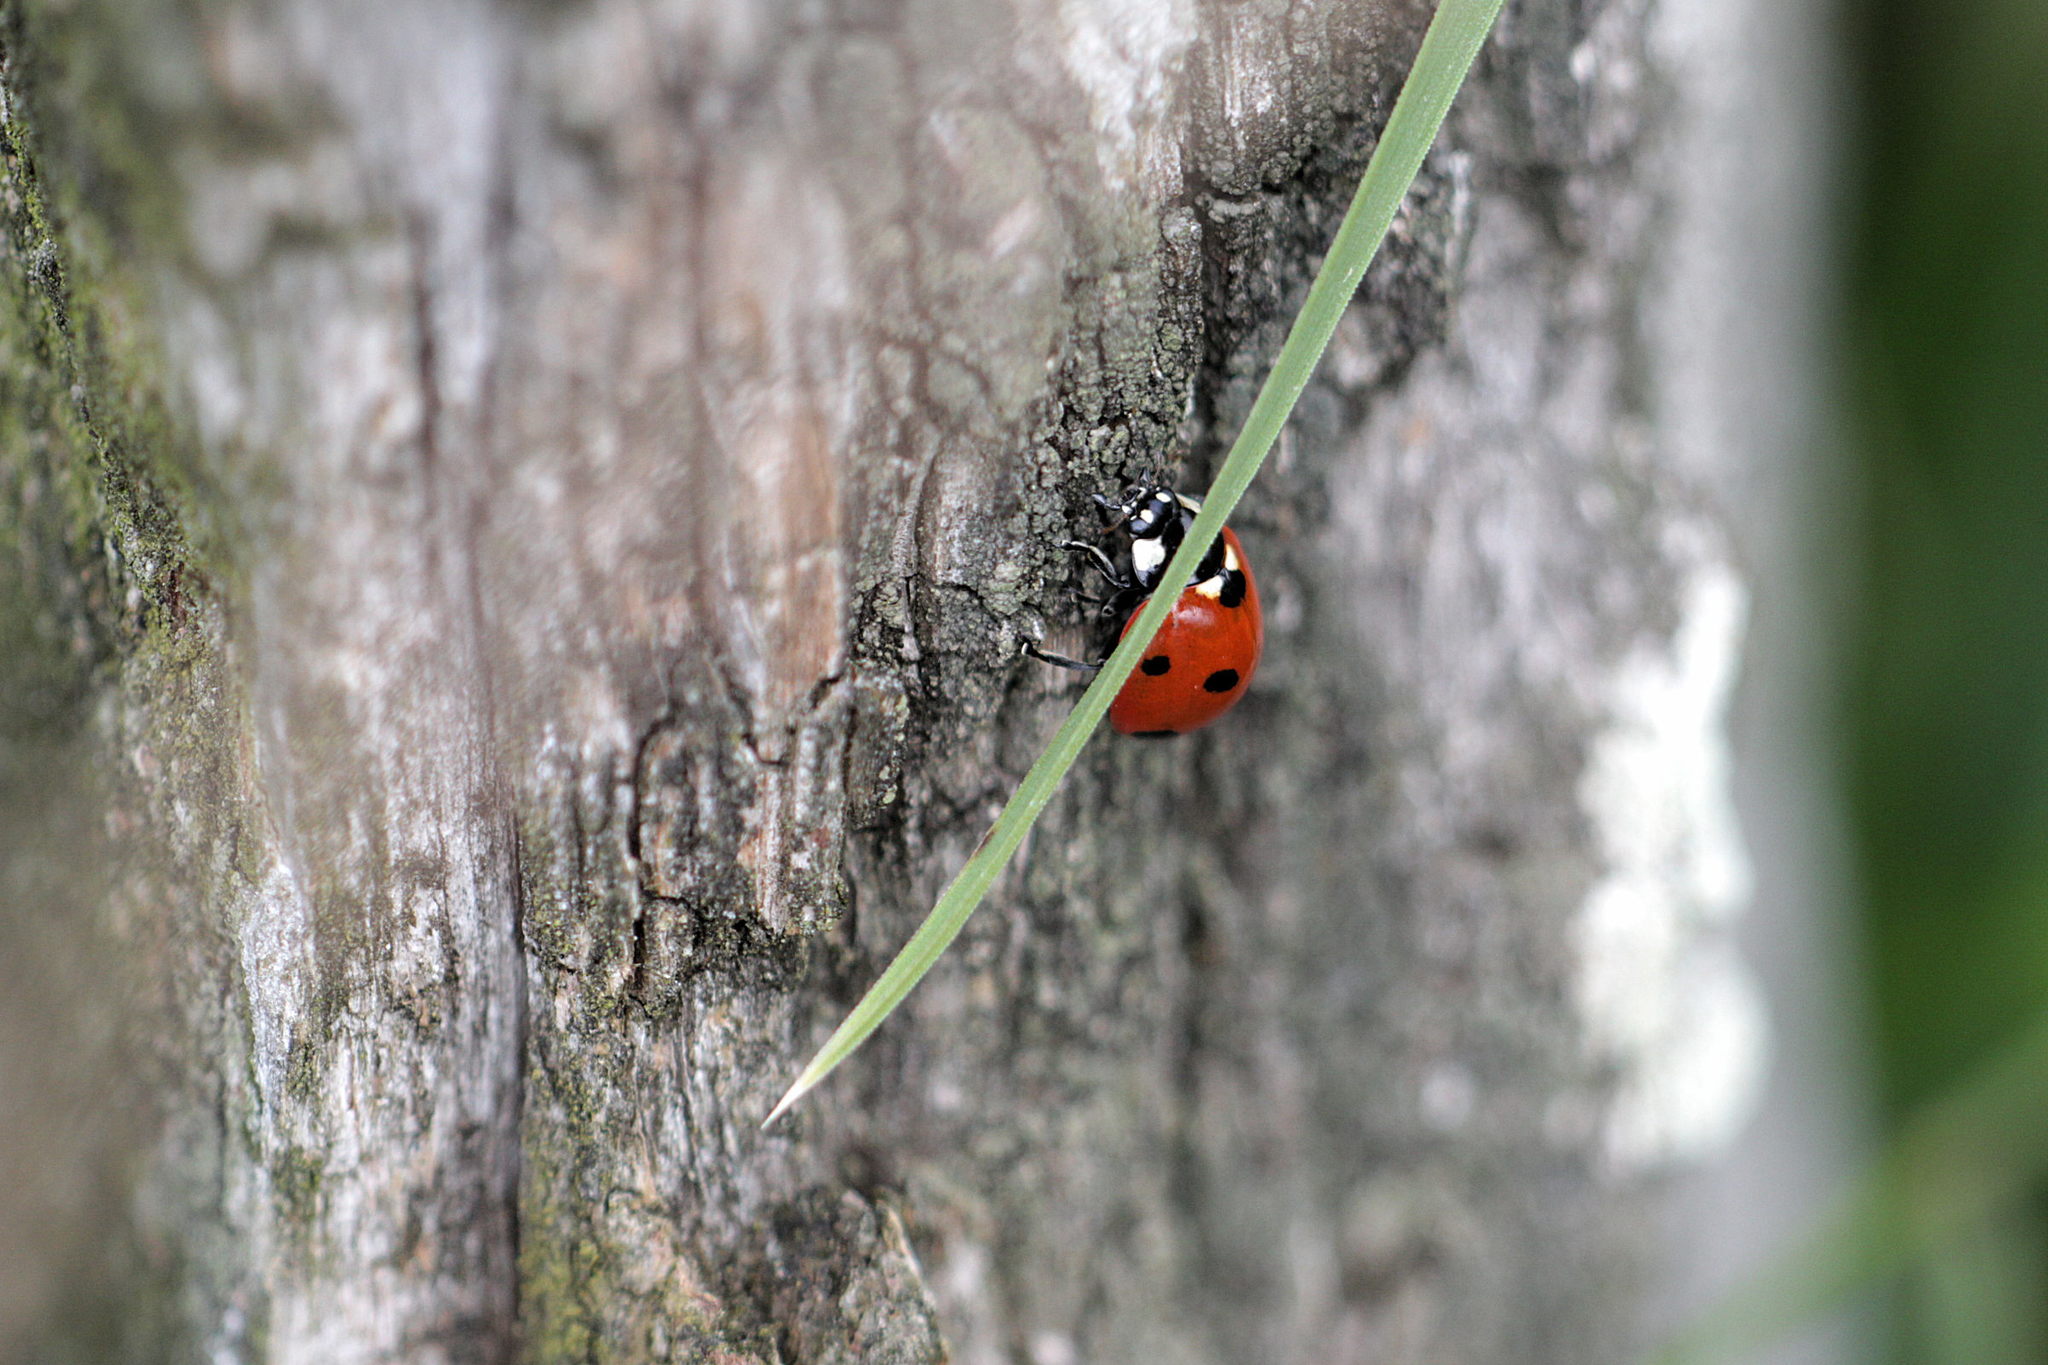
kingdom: Animalia
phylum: Arthropoda
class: Insecta
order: Coleoptera
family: Coccinellidae
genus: Coccinella
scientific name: Coccinella septempunctata
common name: Sevenspotted lady beetle
